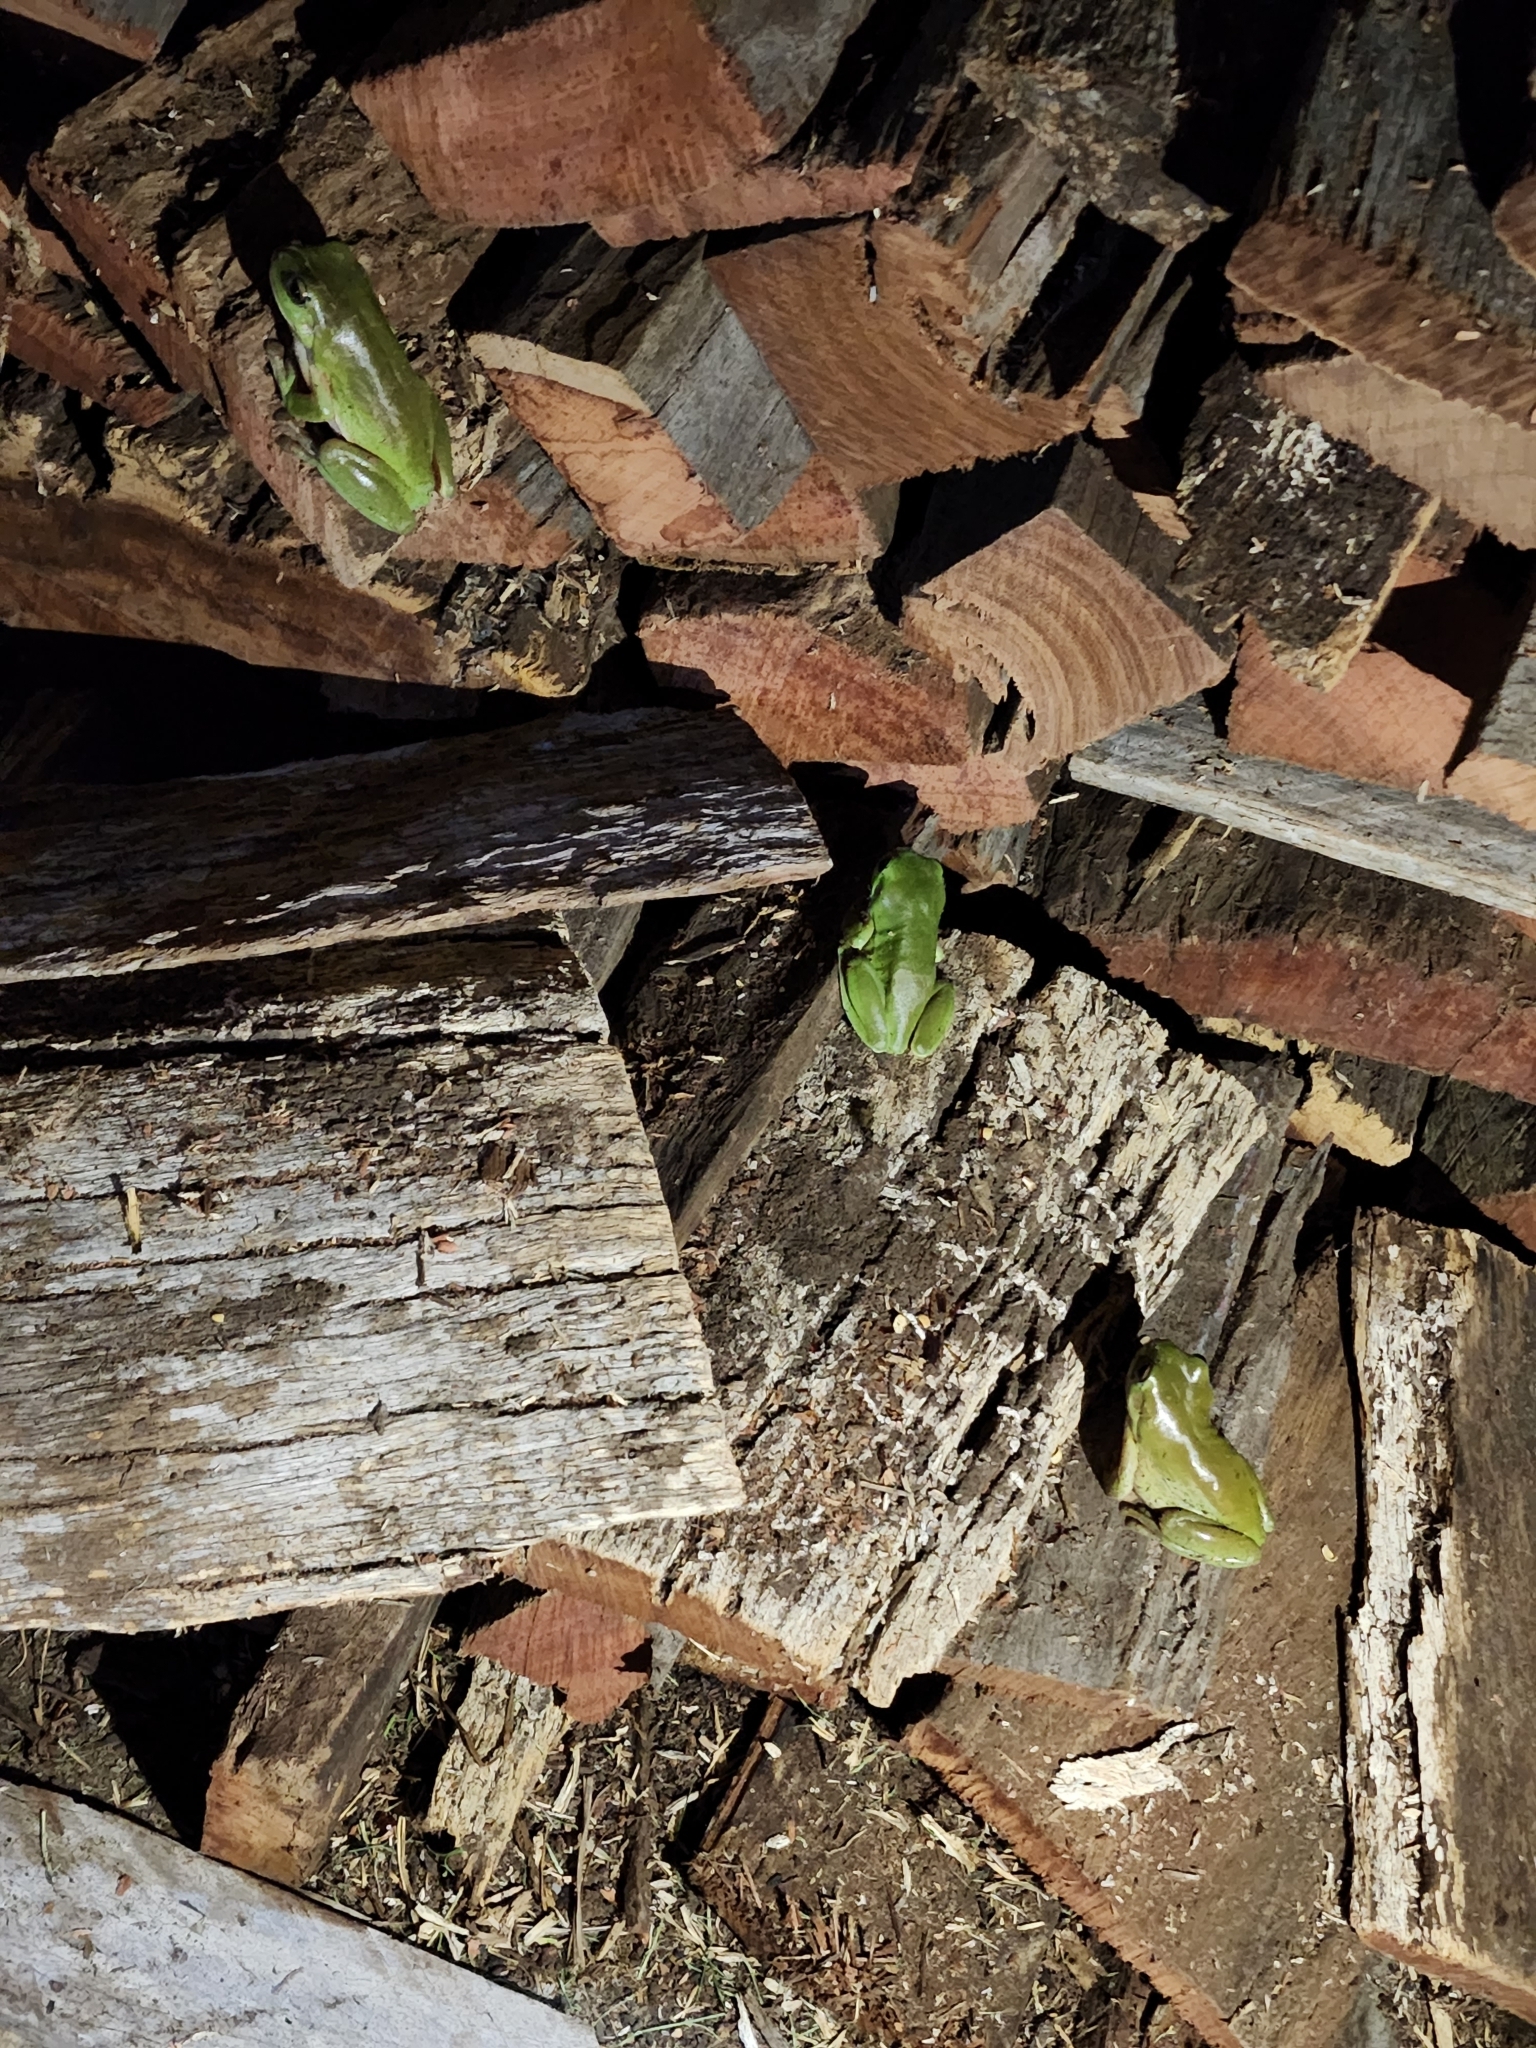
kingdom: Animalia
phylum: Chordata
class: Amphibia
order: Anura
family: Pelodryadidae
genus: Ranoidea
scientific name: Ranoidea caerulea
